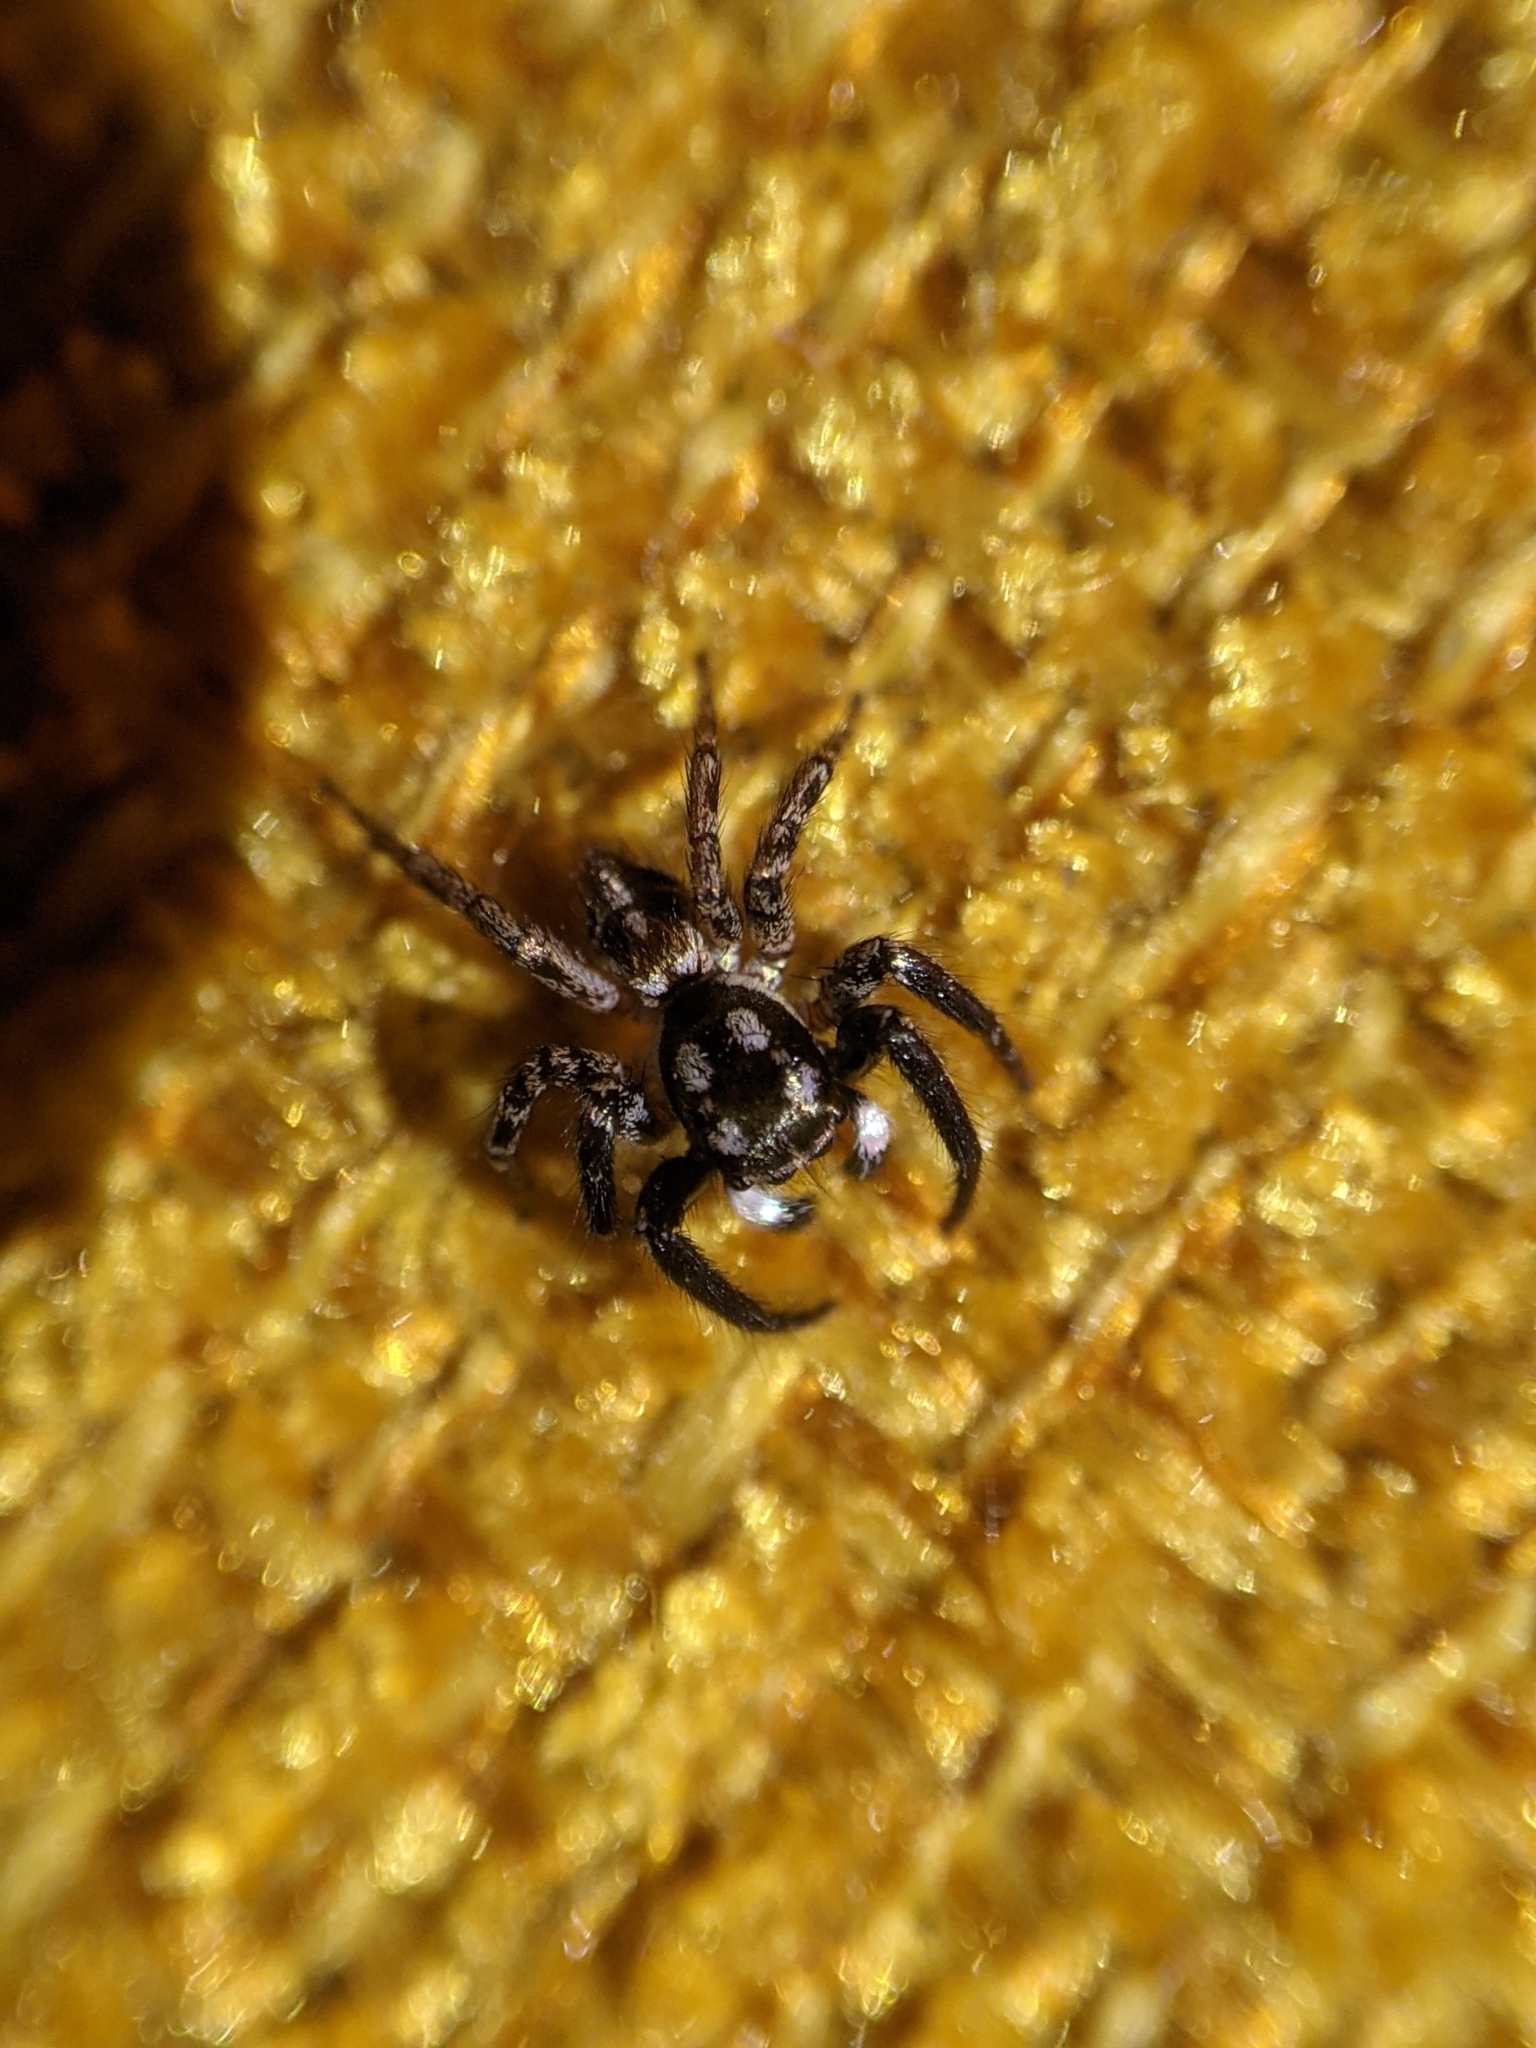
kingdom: Animalia
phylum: Arthropoda
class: Arachnida
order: Araneae
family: Salticidae
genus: Anasaitis
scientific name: Anasaitis canosa
